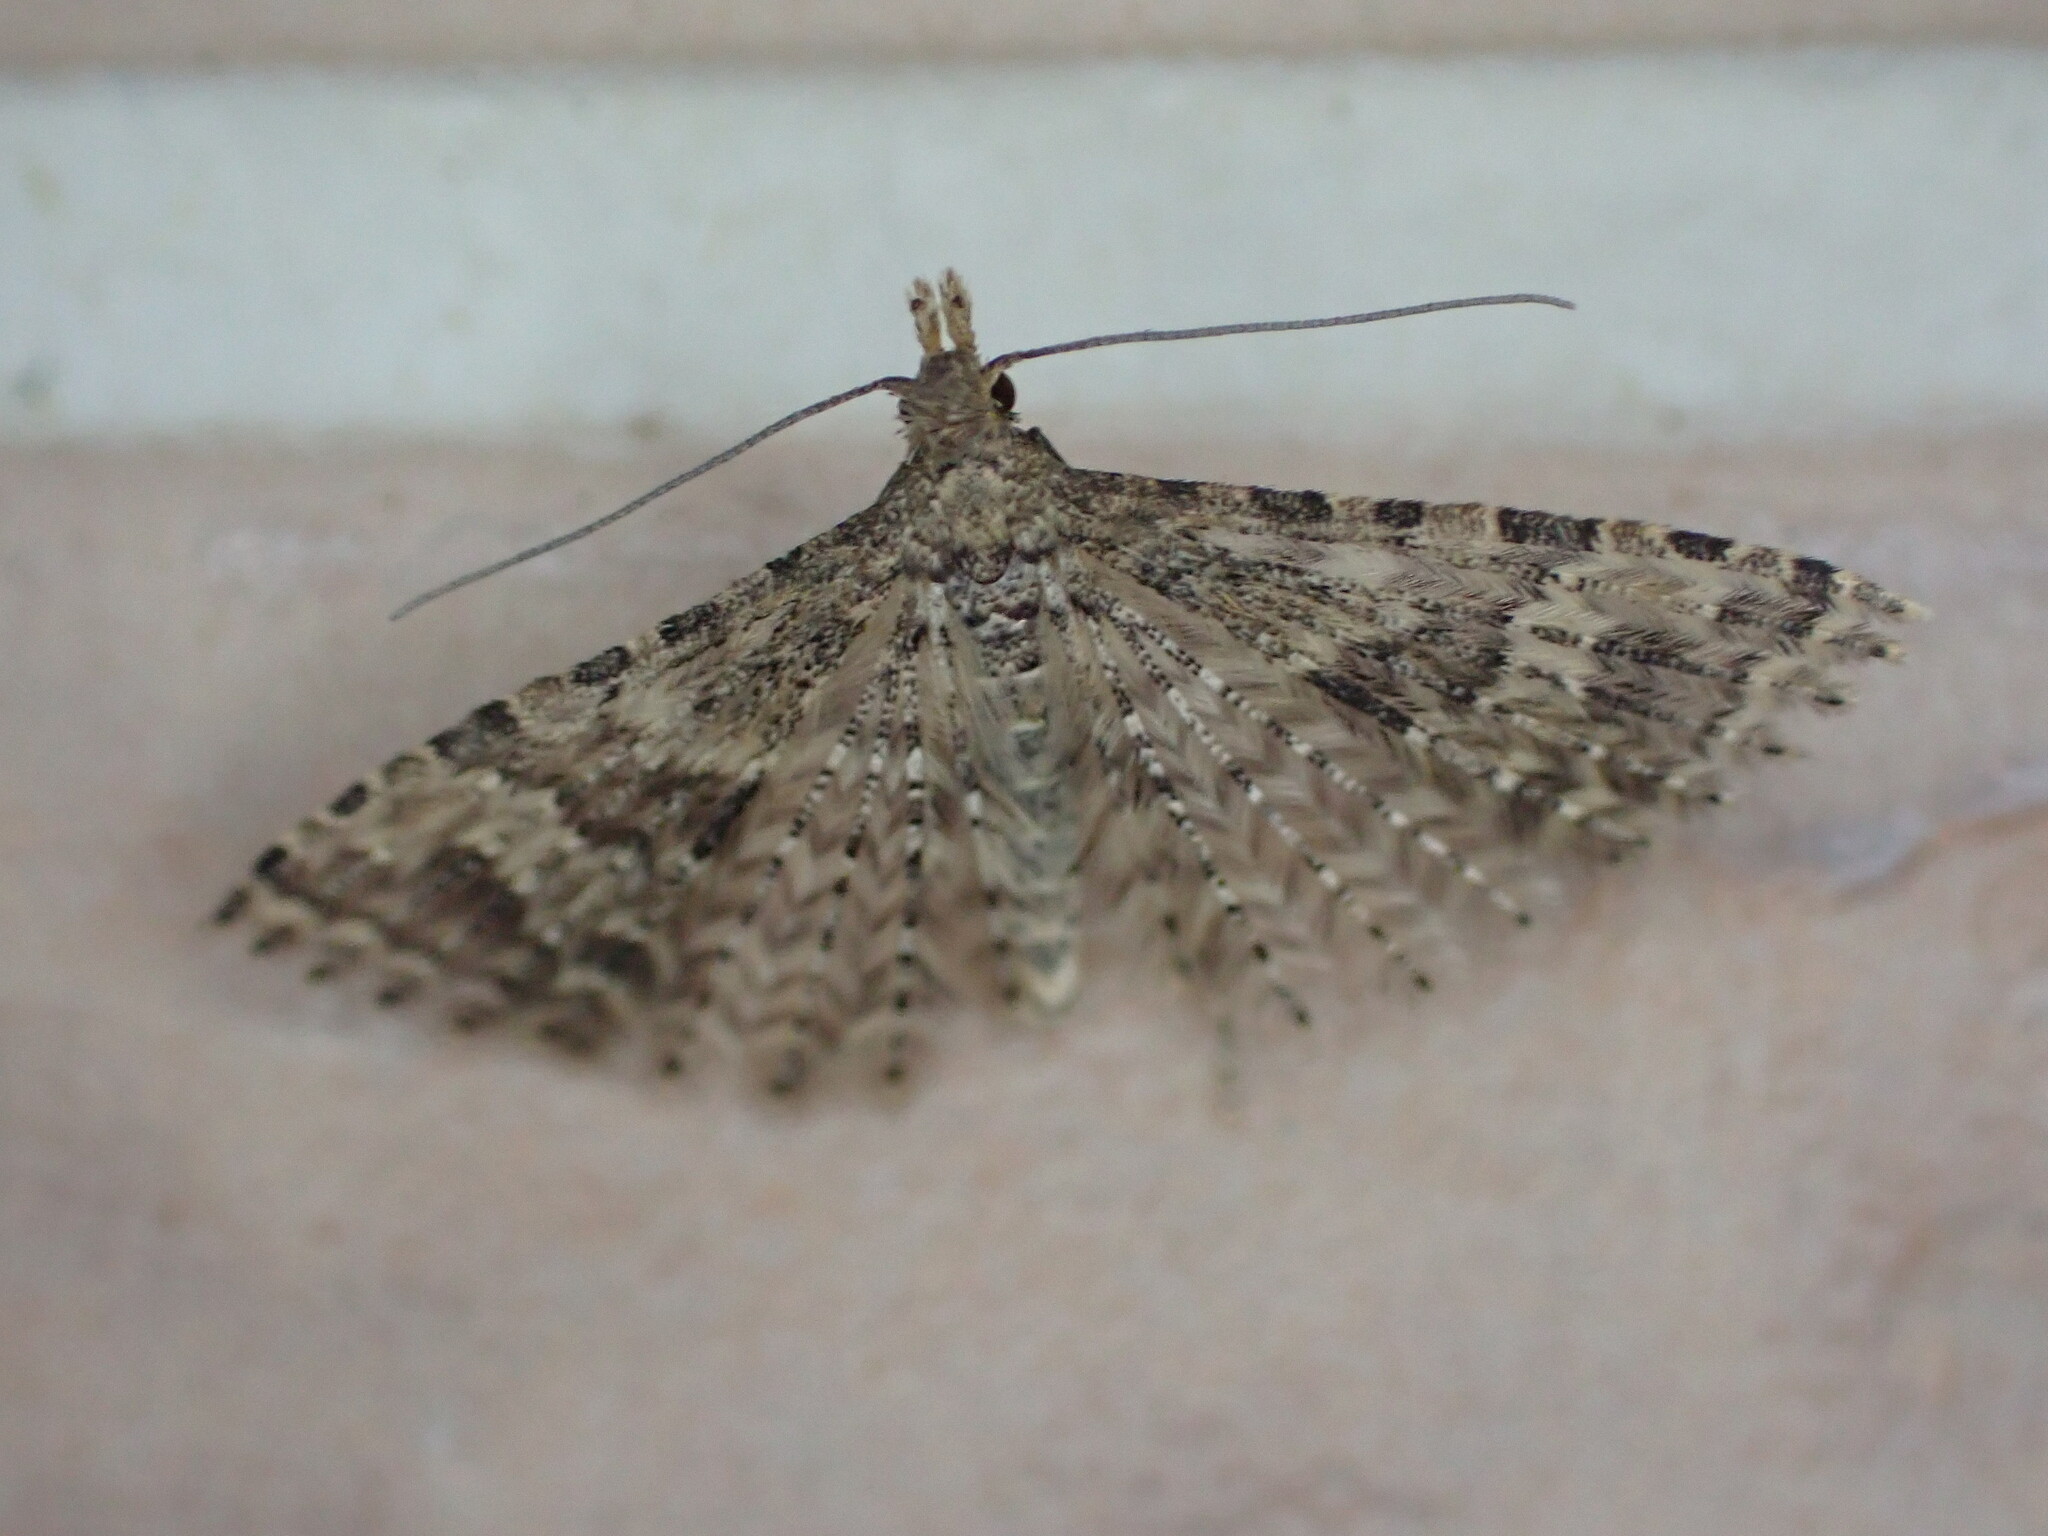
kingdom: Animalia
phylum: Arthropoda
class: Insecta
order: Lepidoptera
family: Alucitidae
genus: Alucita
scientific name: Alucita hexadactyla
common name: Twenty-plume moth
